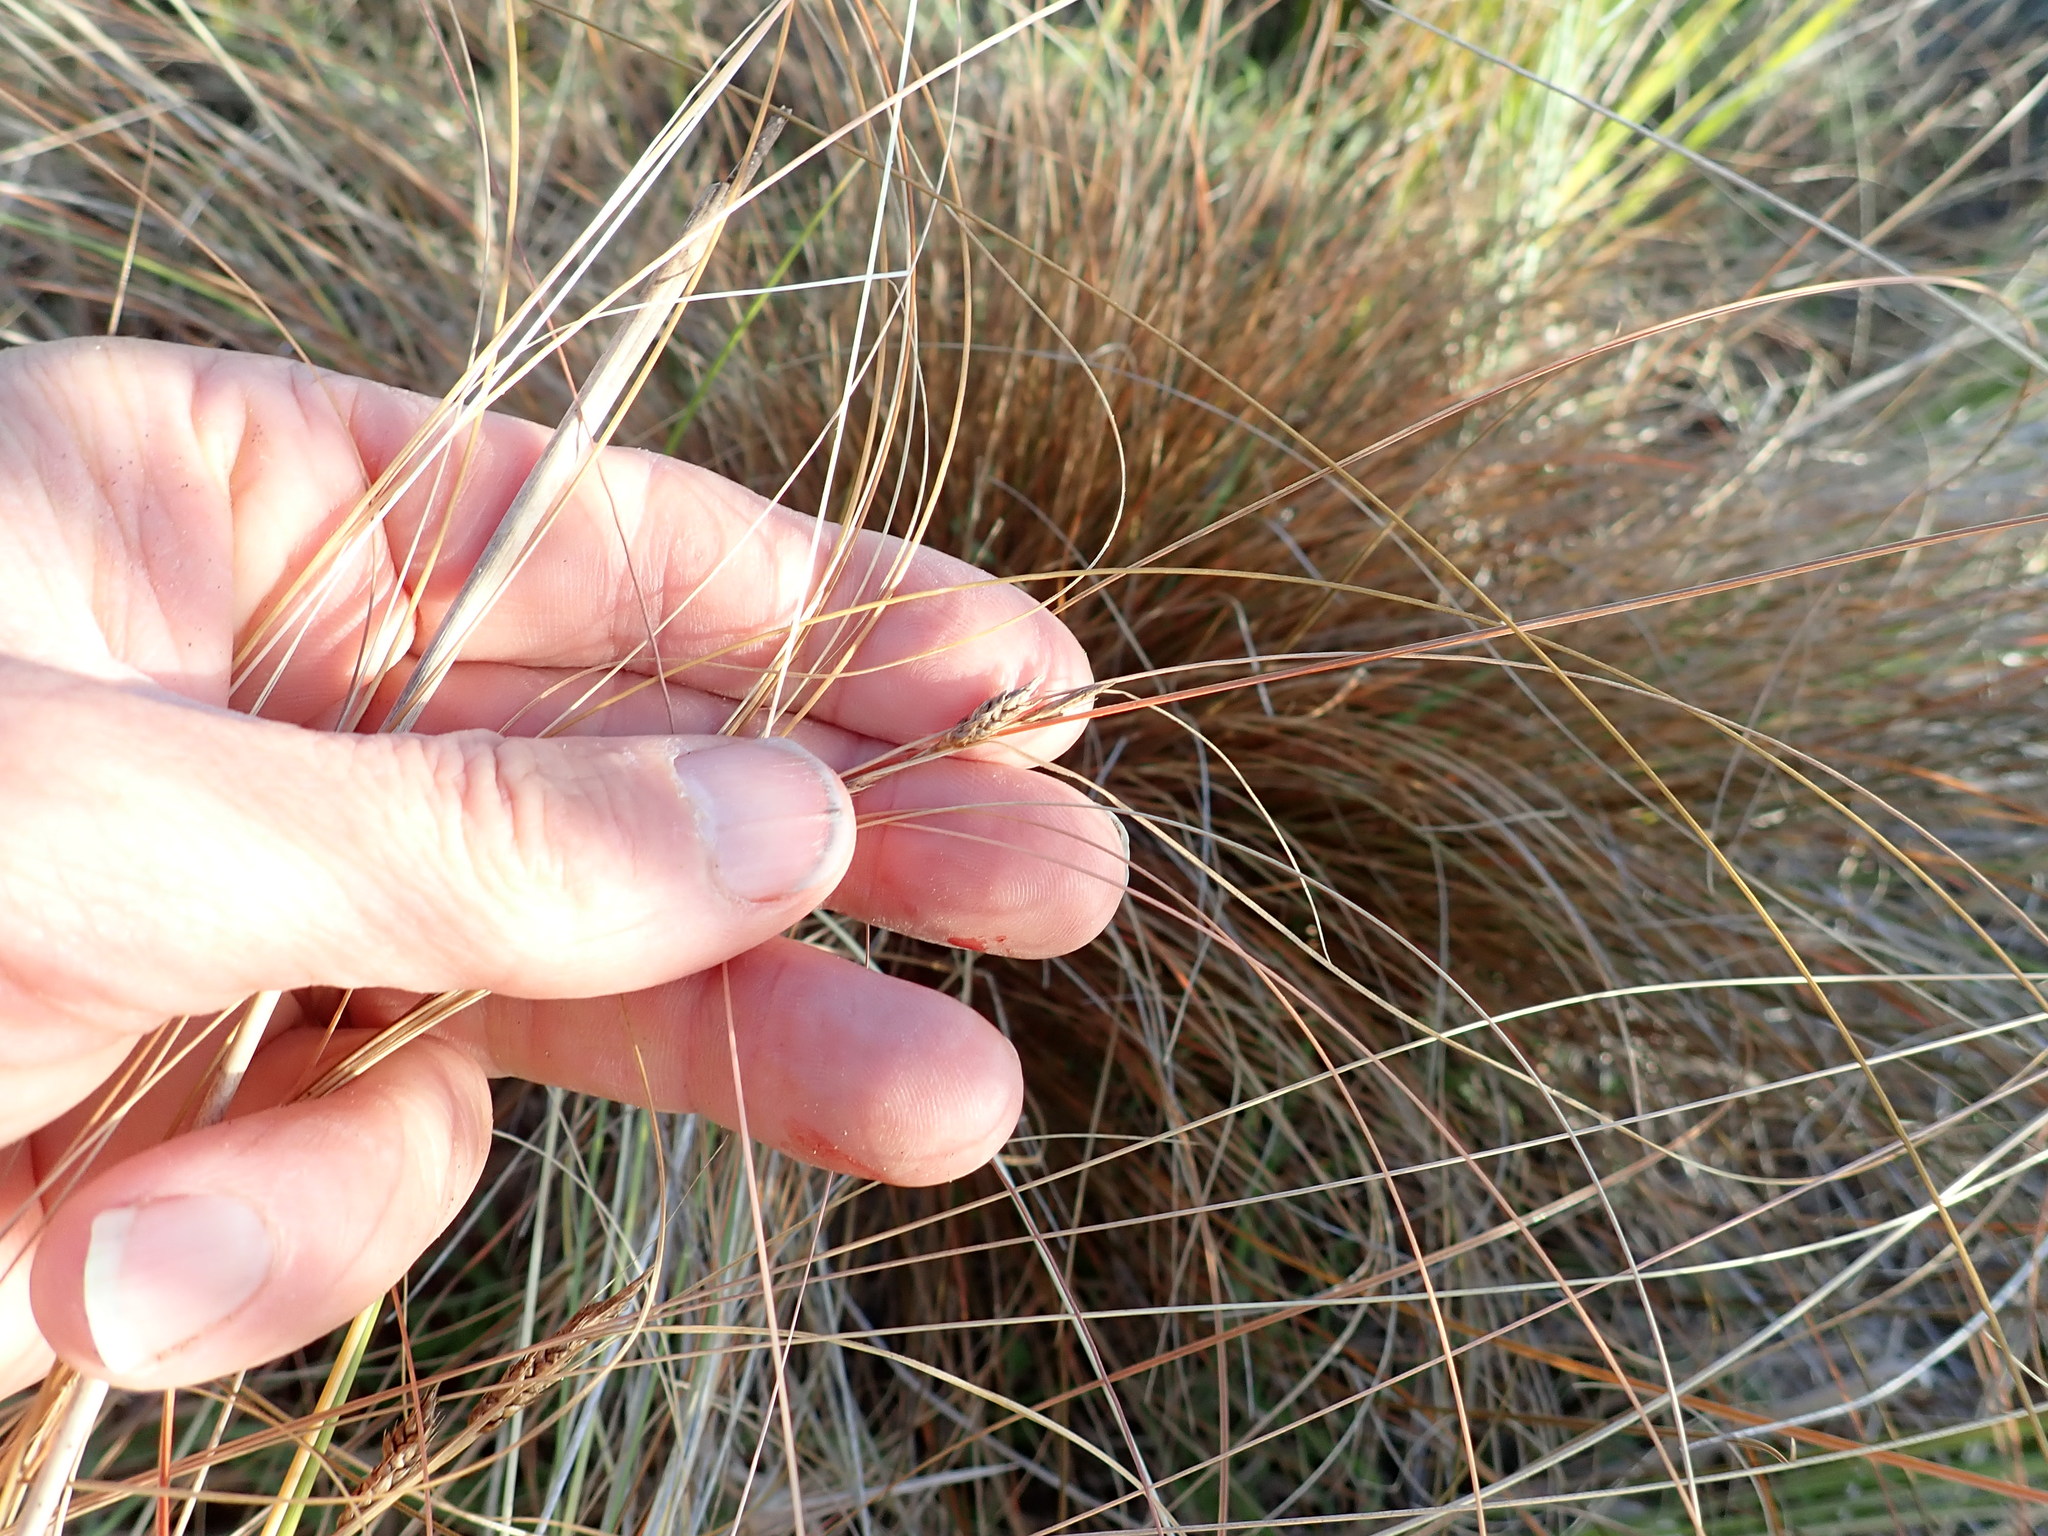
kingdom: Plantae
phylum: Tracheophyta
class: Liliopsida
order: Poales
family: Cyperaceae
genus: Carex
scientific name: Carex testacea
